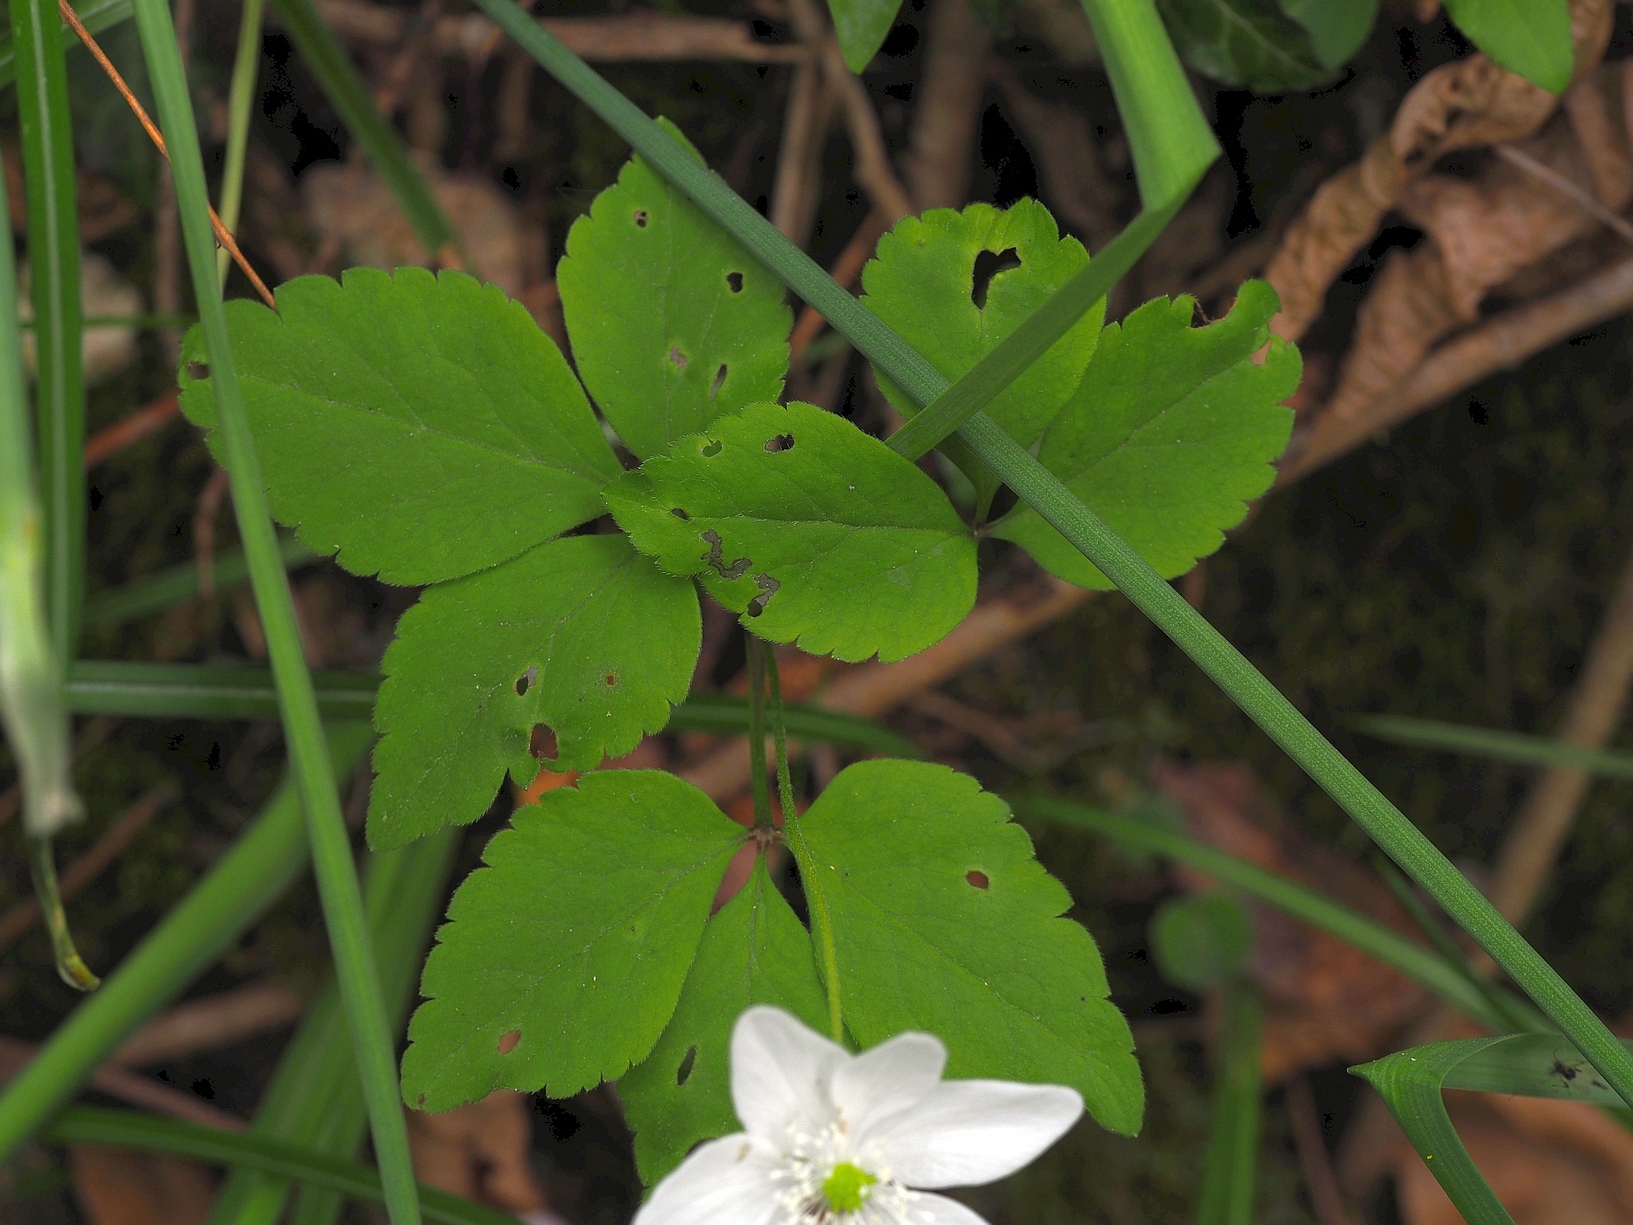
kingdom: Plantae
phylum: Tracheophyta
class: Magnoliopsida
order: Ranunculales
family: Ranunculaceae
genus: Anemone
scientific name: Anemone trifolia
